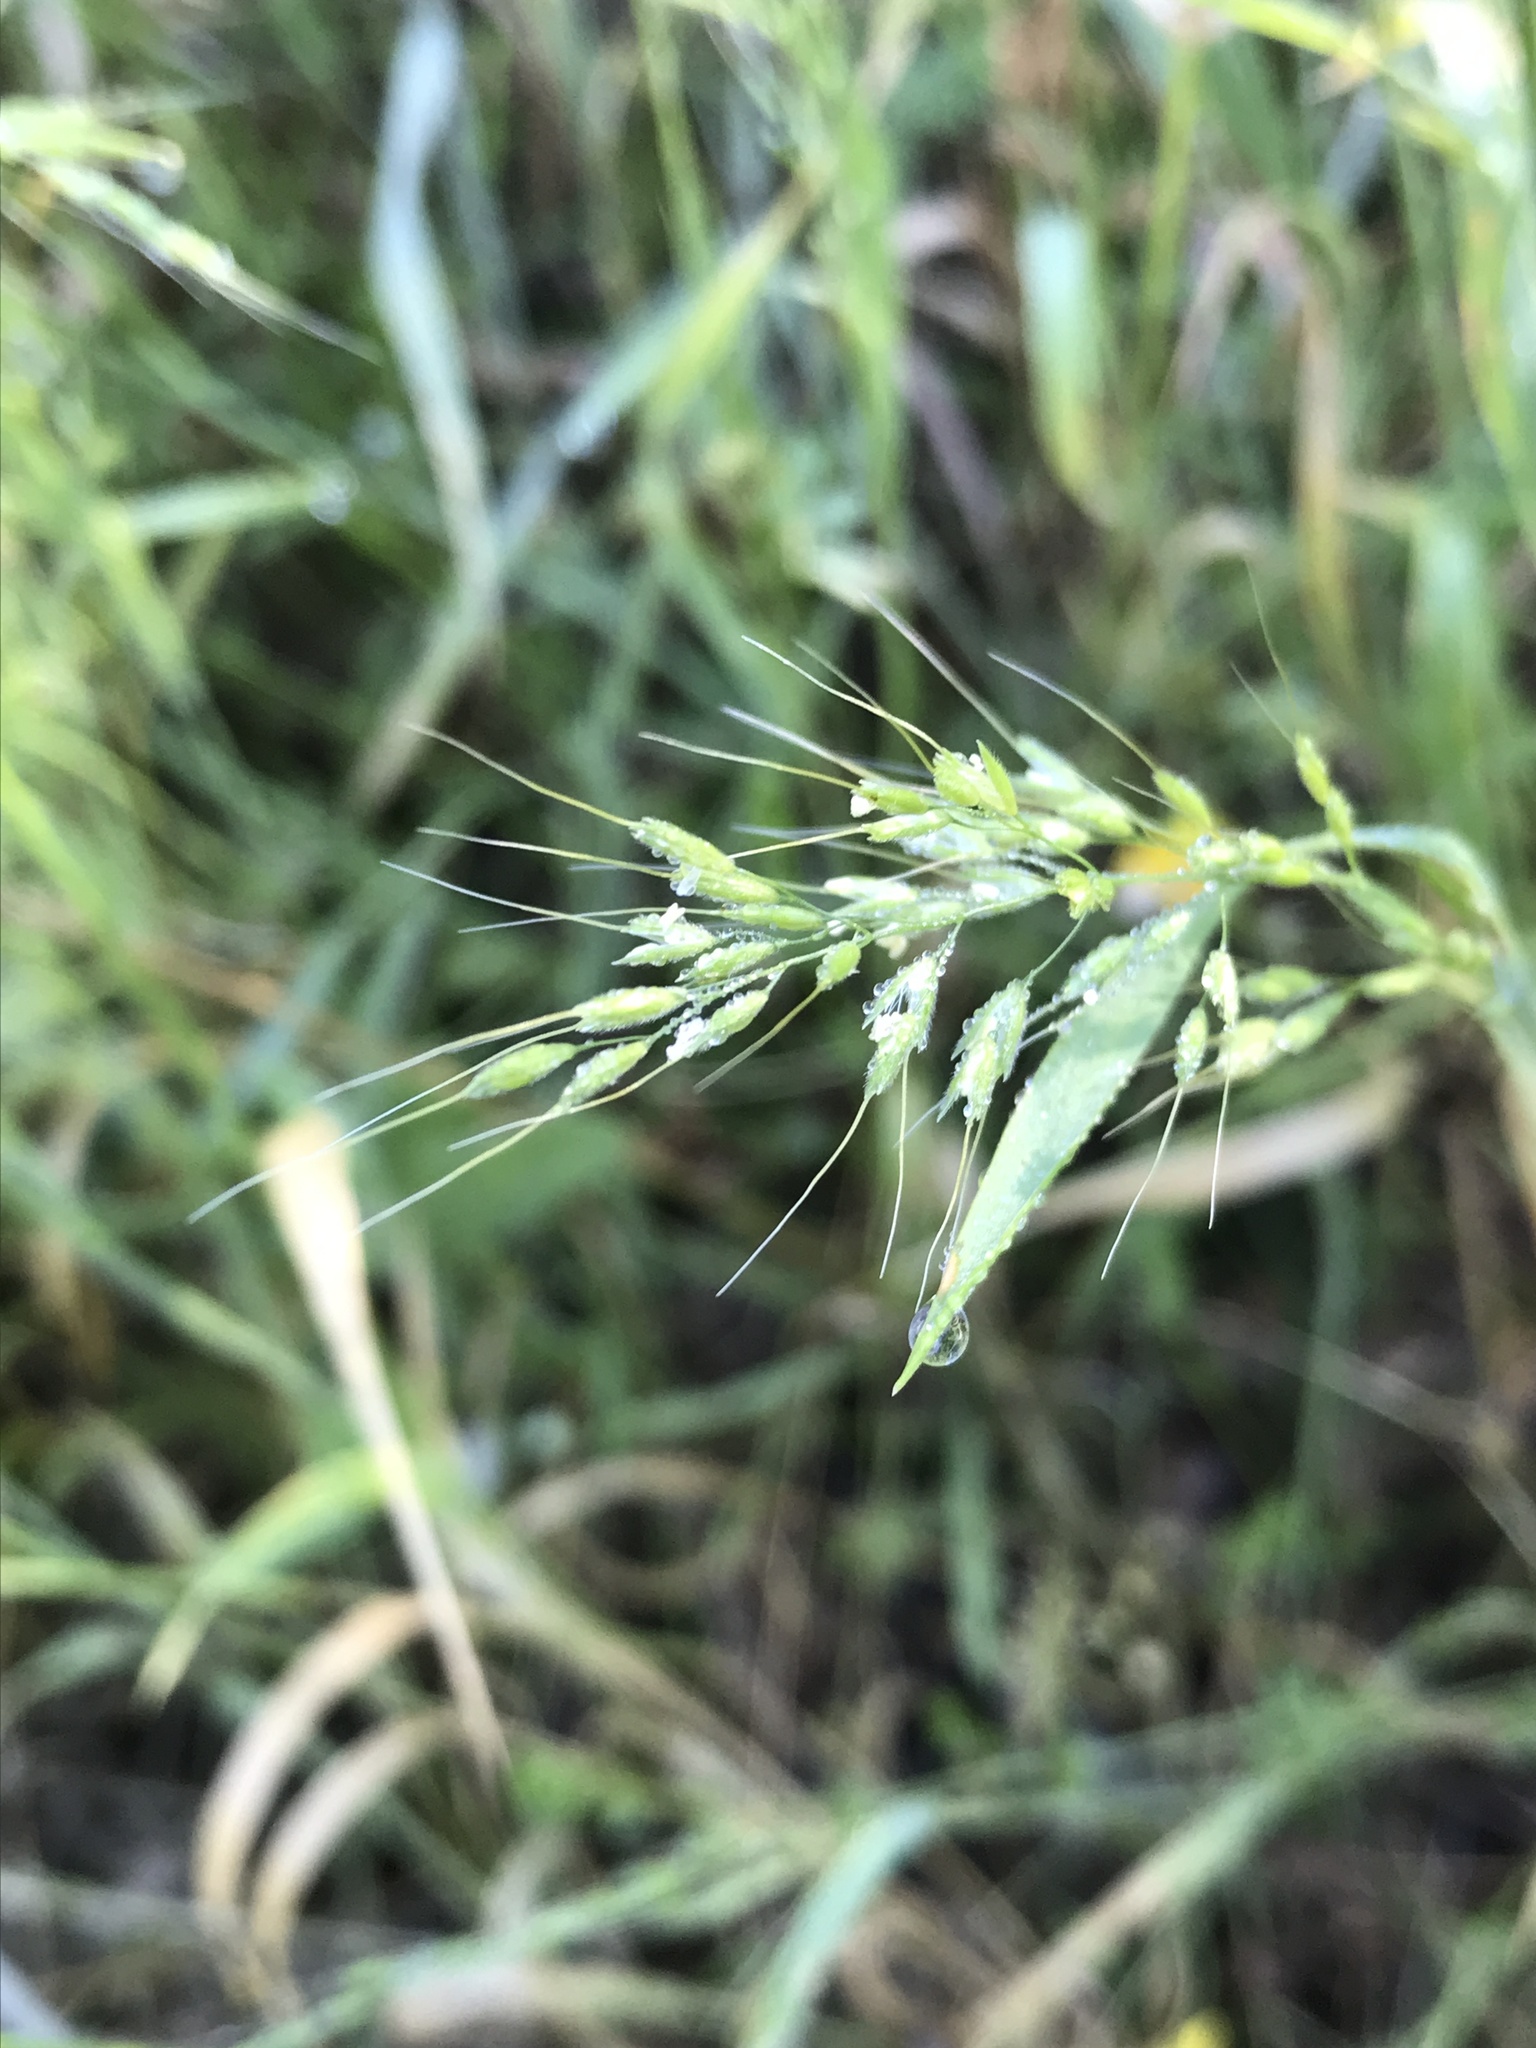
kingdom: Plantae
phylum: Tracheophyta
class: Liliopsida
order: Poales
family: Poaceae
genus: Limnodea
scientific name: Limnodea arkansana
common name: Ozark-grass
